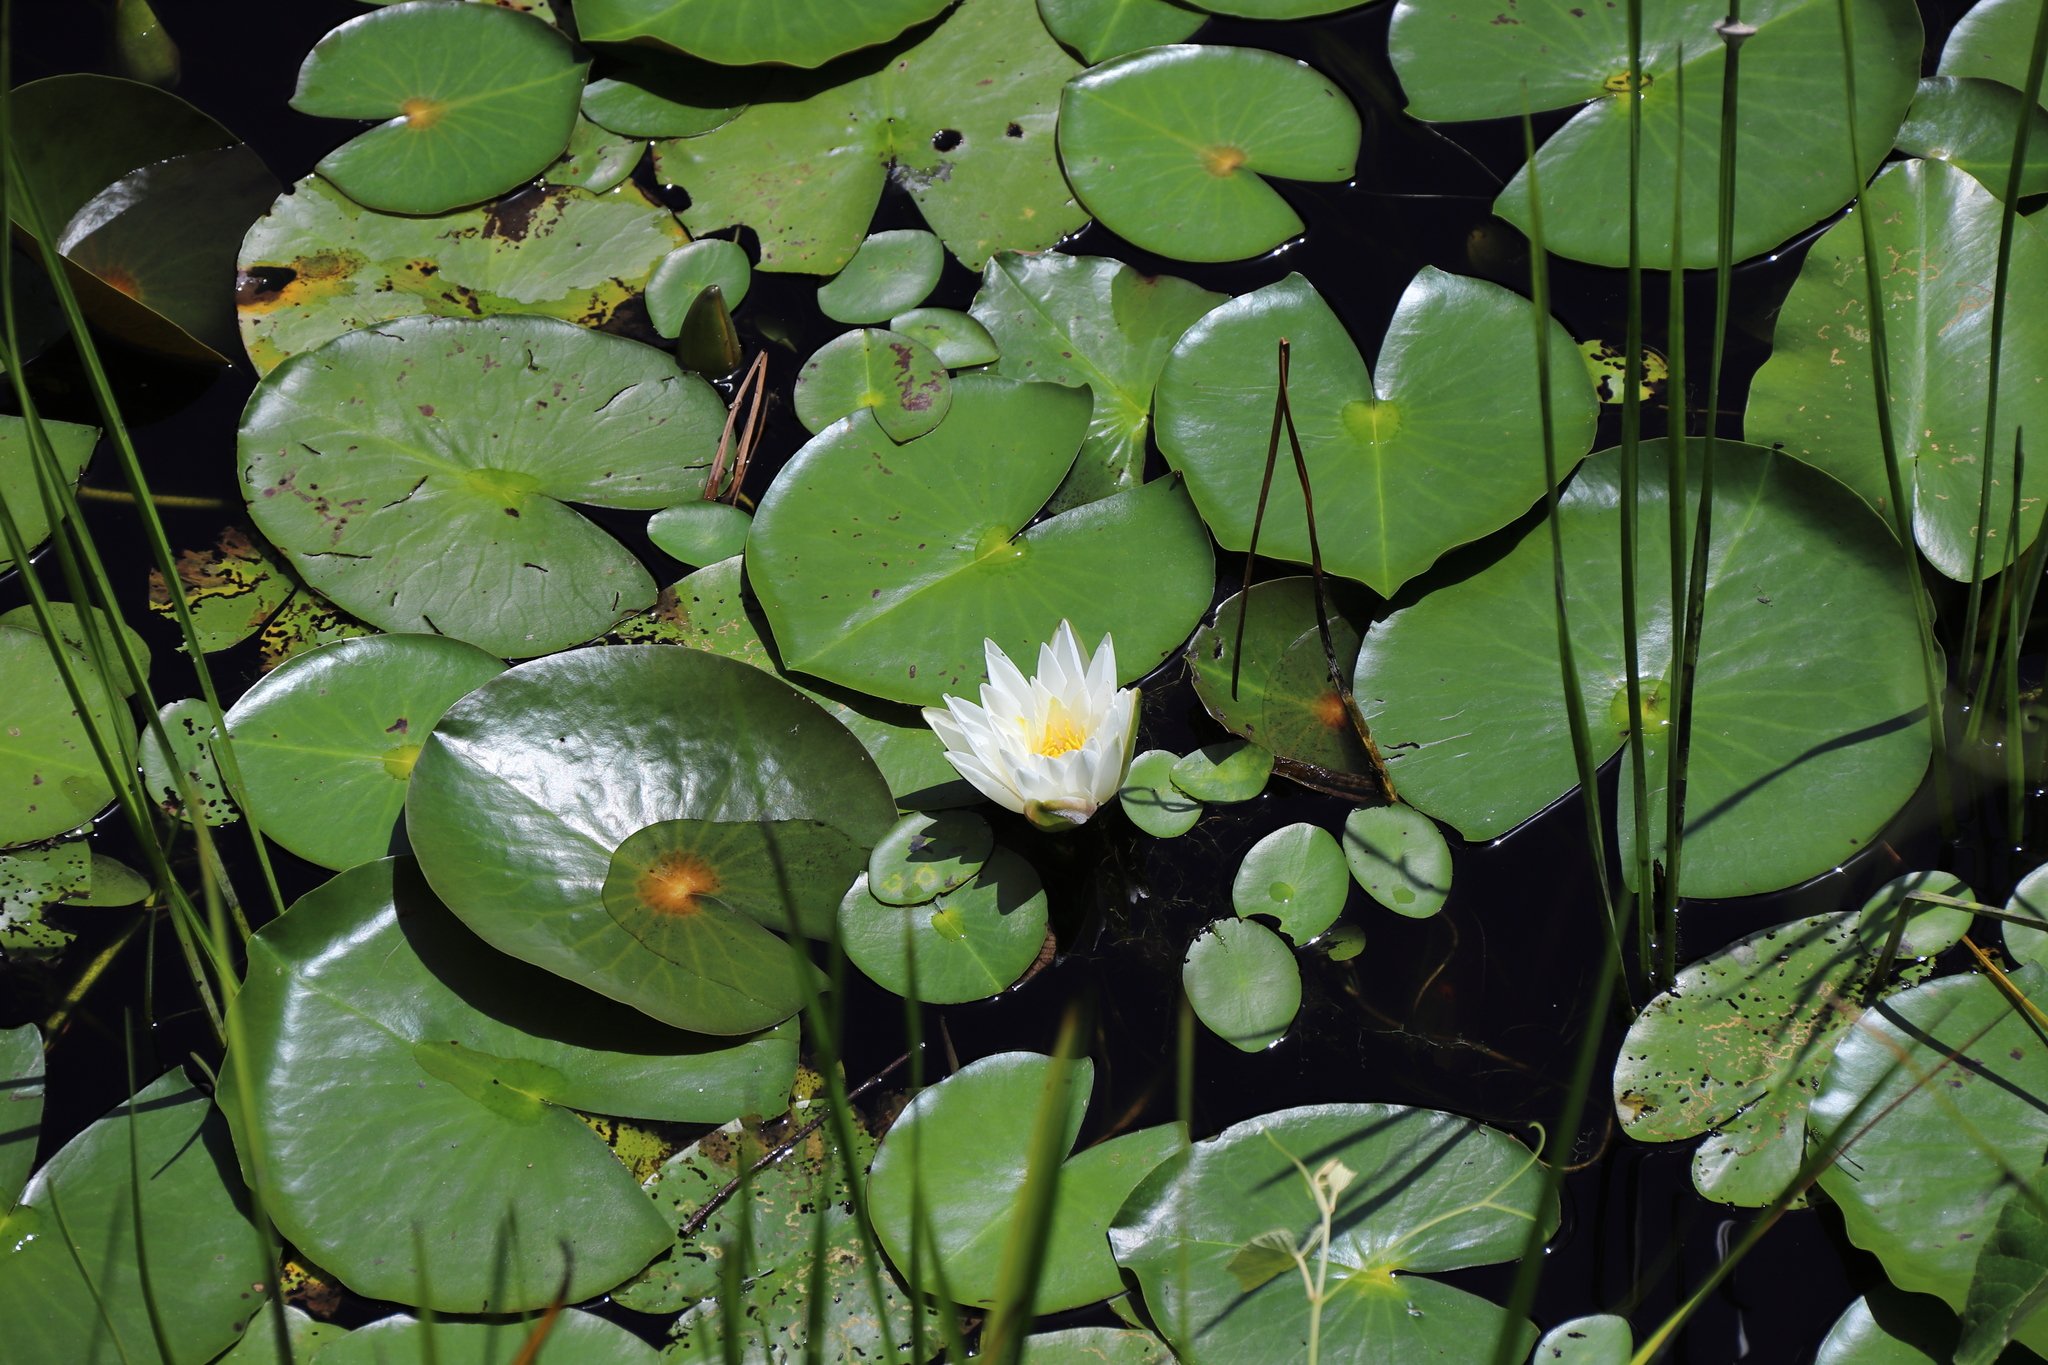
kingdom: Plantae
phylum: Tracheophyta
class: Magnoliopsida
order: Nymphaeales
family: Nymphaeaceae
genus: Nymphaea
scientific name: Nymphaea odorata
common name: Fragrant water-lily
